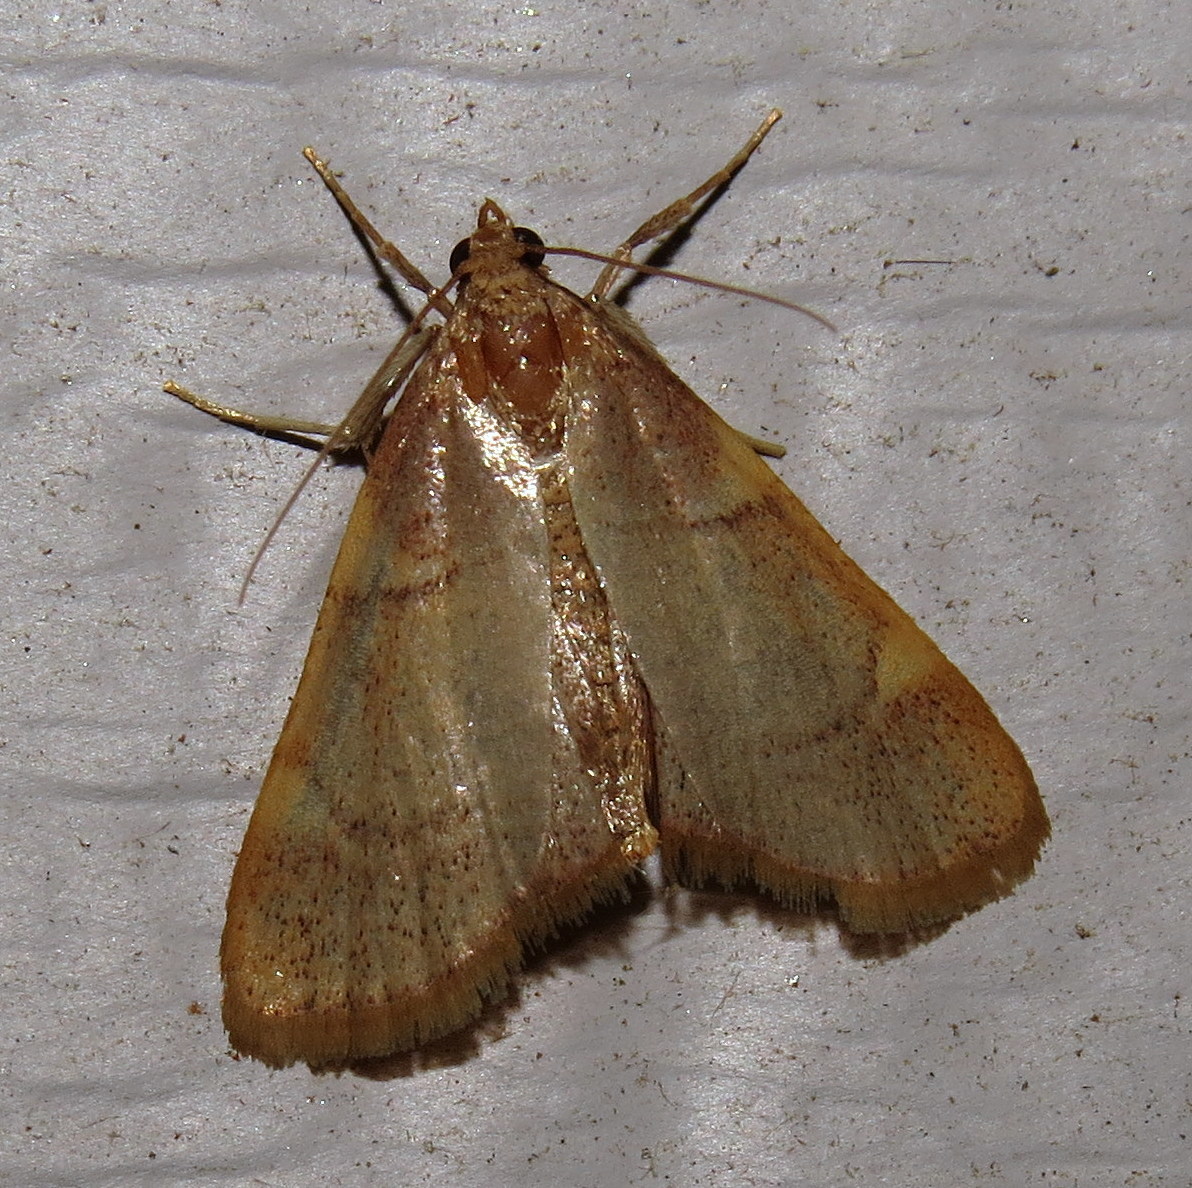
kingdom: Animalia
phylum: Arthropoda
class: Insecta
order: Lepidoptera
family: Pyralidae
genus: Hypsopygia
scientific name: Hypsopygia olinalis
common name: Yellow-fringed dolichomia moth
